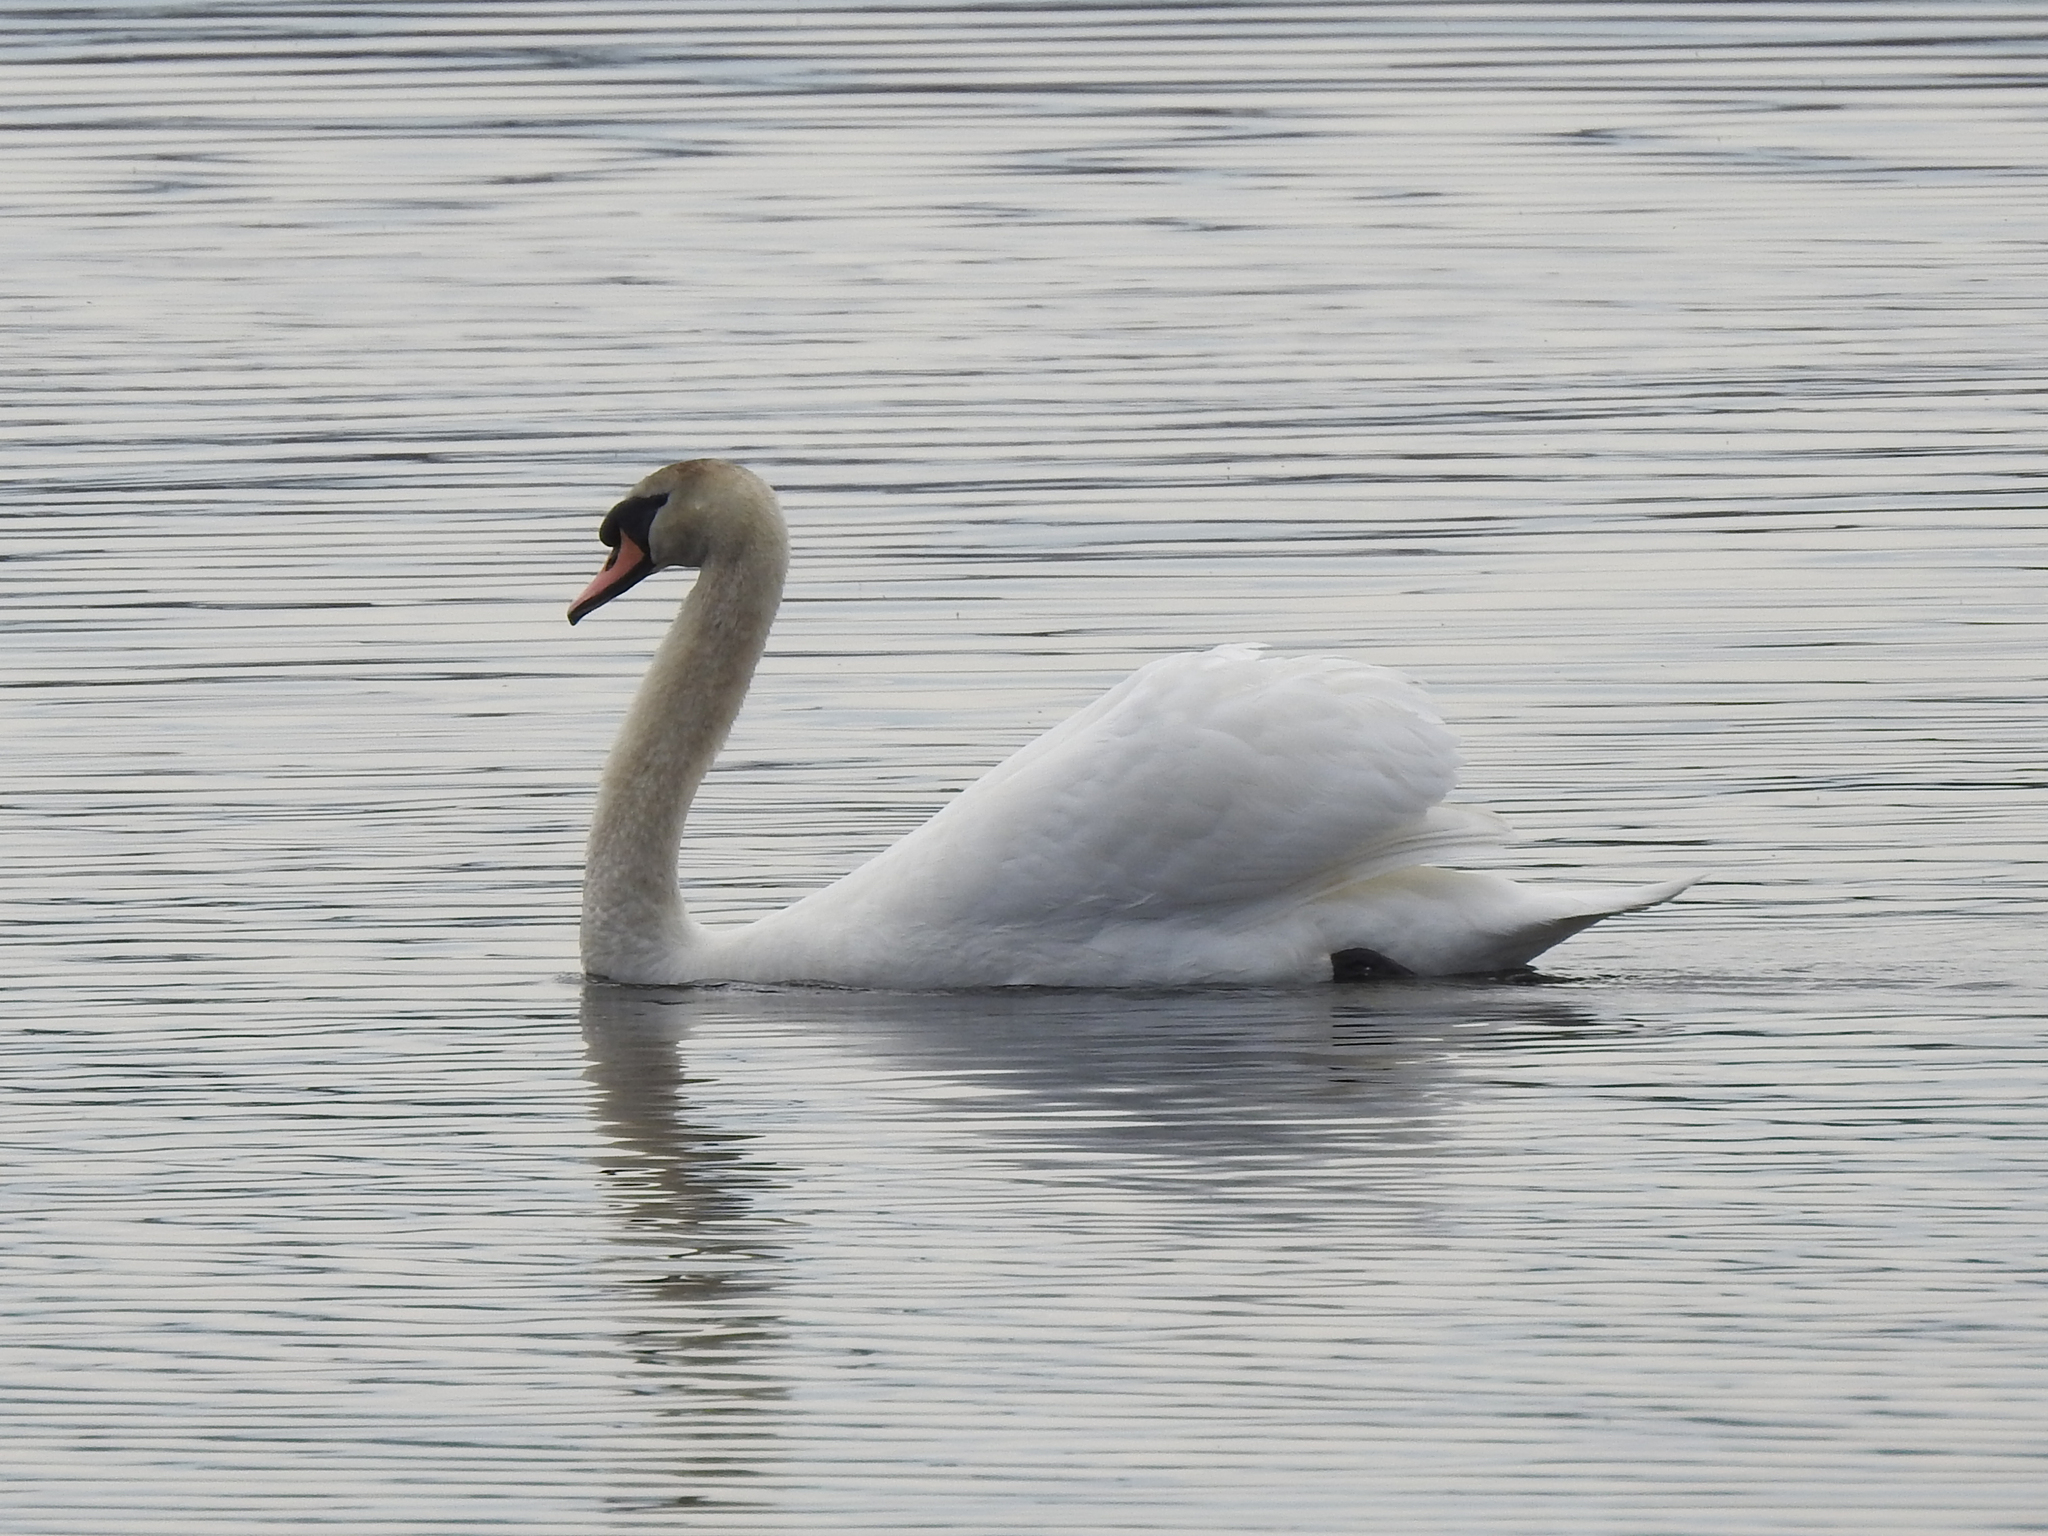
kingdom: Animalia
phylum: Chordata
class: Aves
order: Anseriformes
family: Anatidae
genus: Cygnus
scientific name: Cygnus olor
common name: Mute swan
